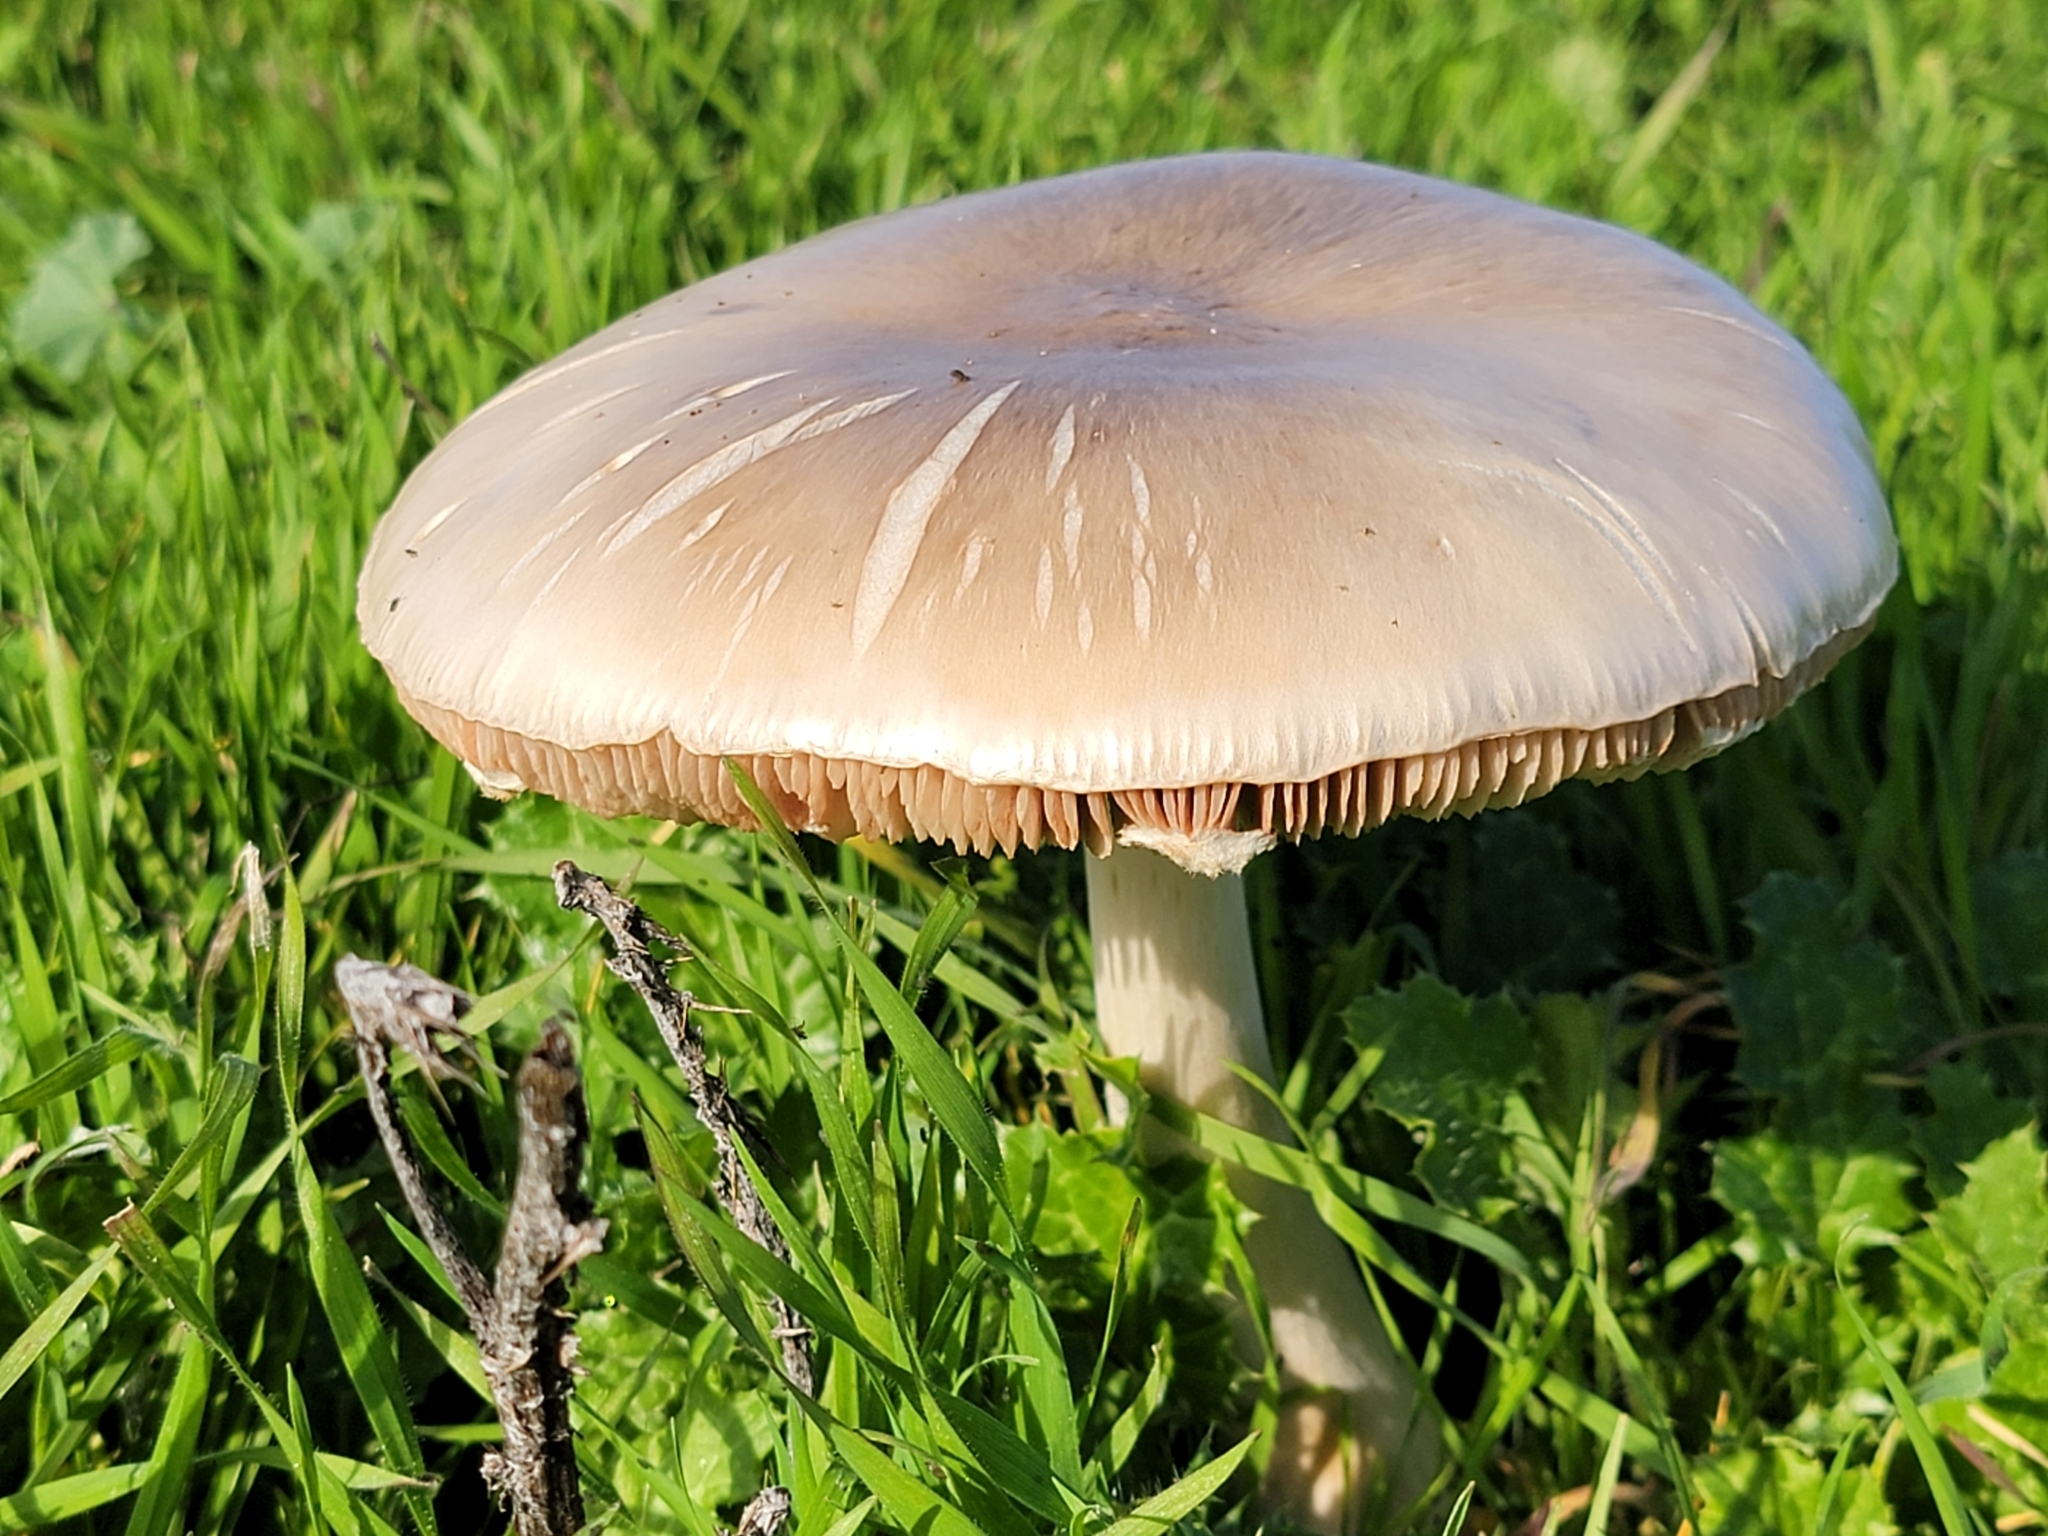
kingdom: Fungi
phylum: Basidiomycota
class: Agaricomycetes
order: Agaricales
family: Pluteaceae
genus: Volvopluteus
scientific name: Volvopluteus gloiocephalus
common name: Stubble rosegill
